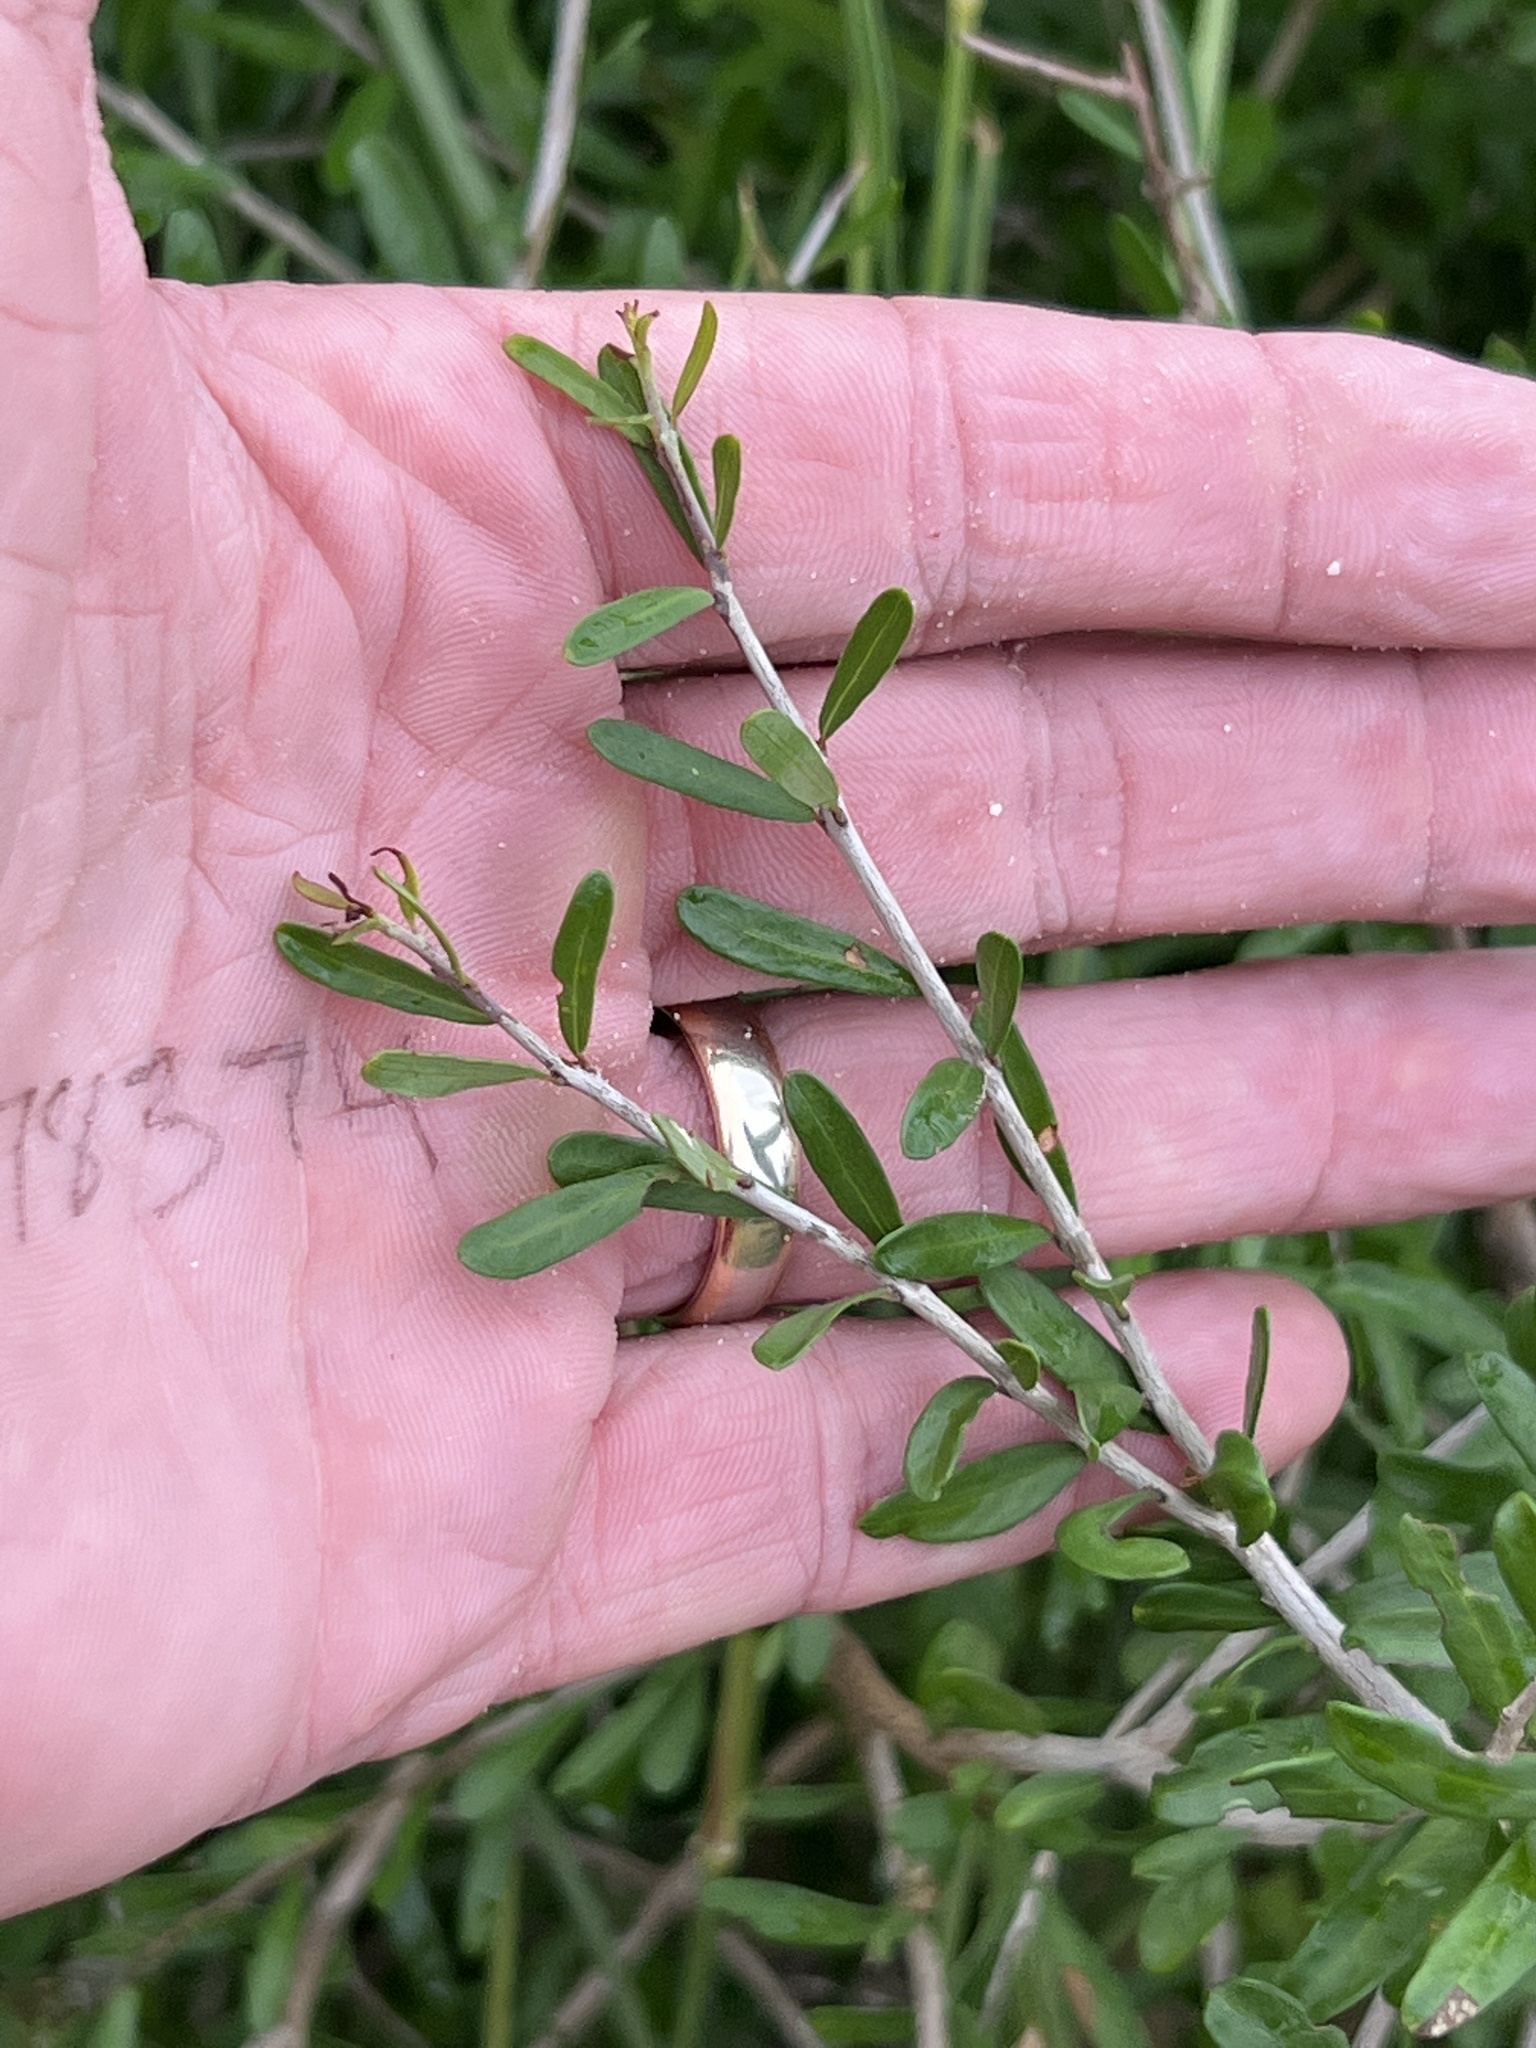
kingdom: Plantae
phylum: Tracheophyta
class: Magnoliopsida
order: Lamiales
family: Oleaceae
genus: Forestiera
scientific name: Forestiera angustifolia
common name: Elbowbush
